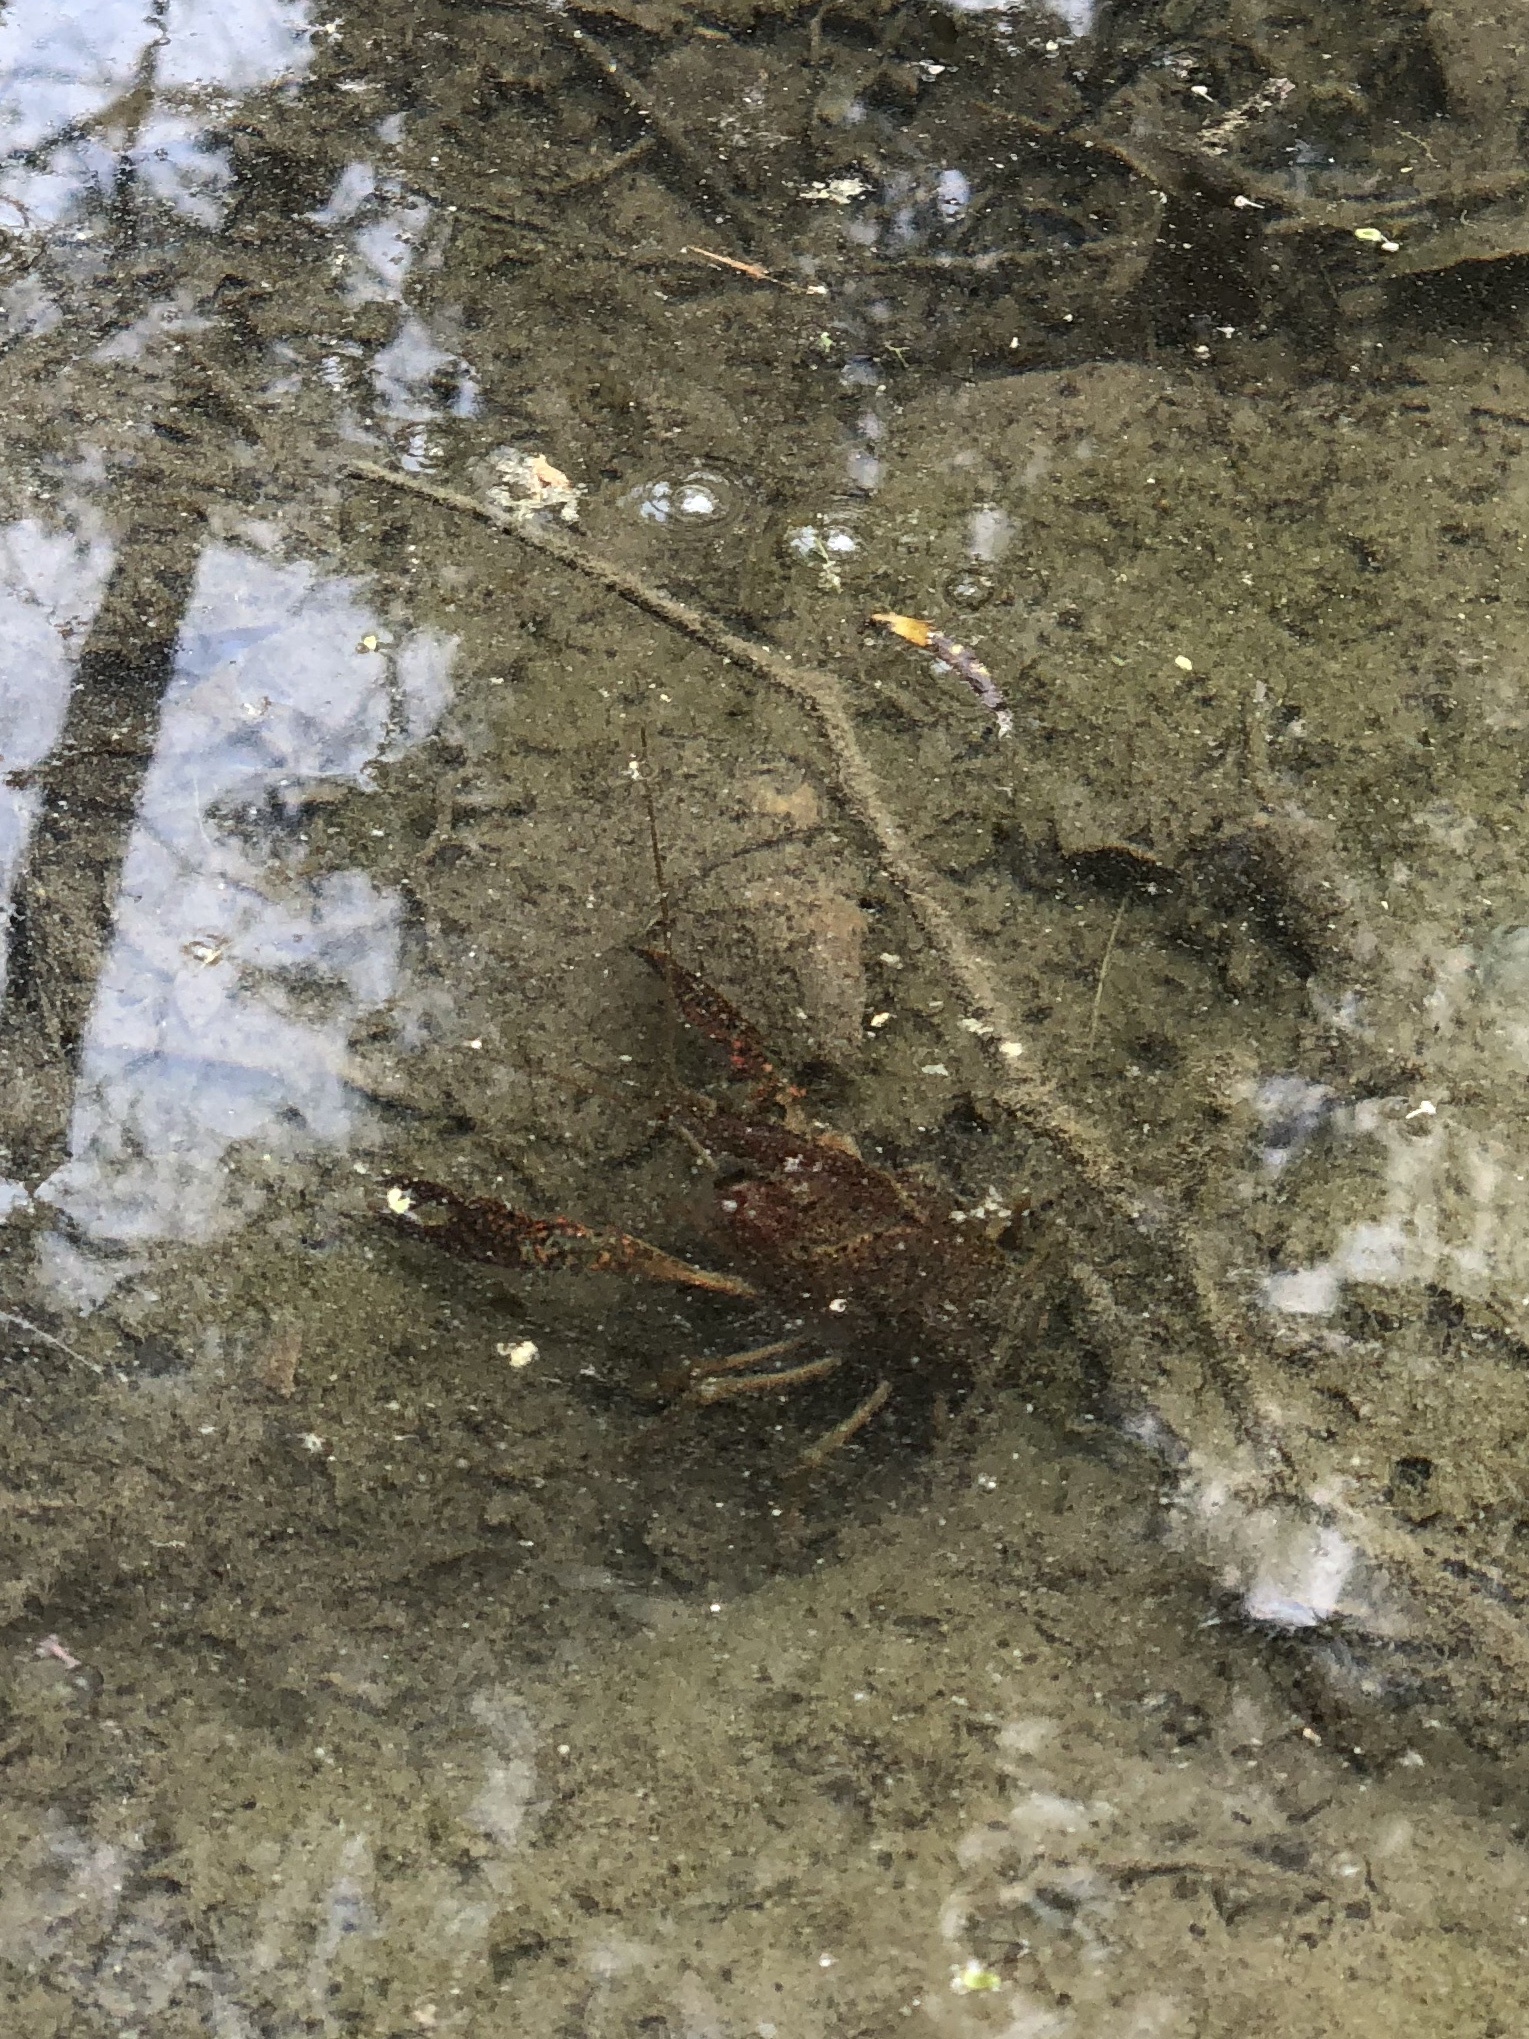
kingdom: Animalia
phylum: Arthropoda
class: Malacostraca
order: Decapoda
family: Cambaridae
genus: Procambarus
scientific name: Procambarus clarkii
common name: Red swamp crayfish
